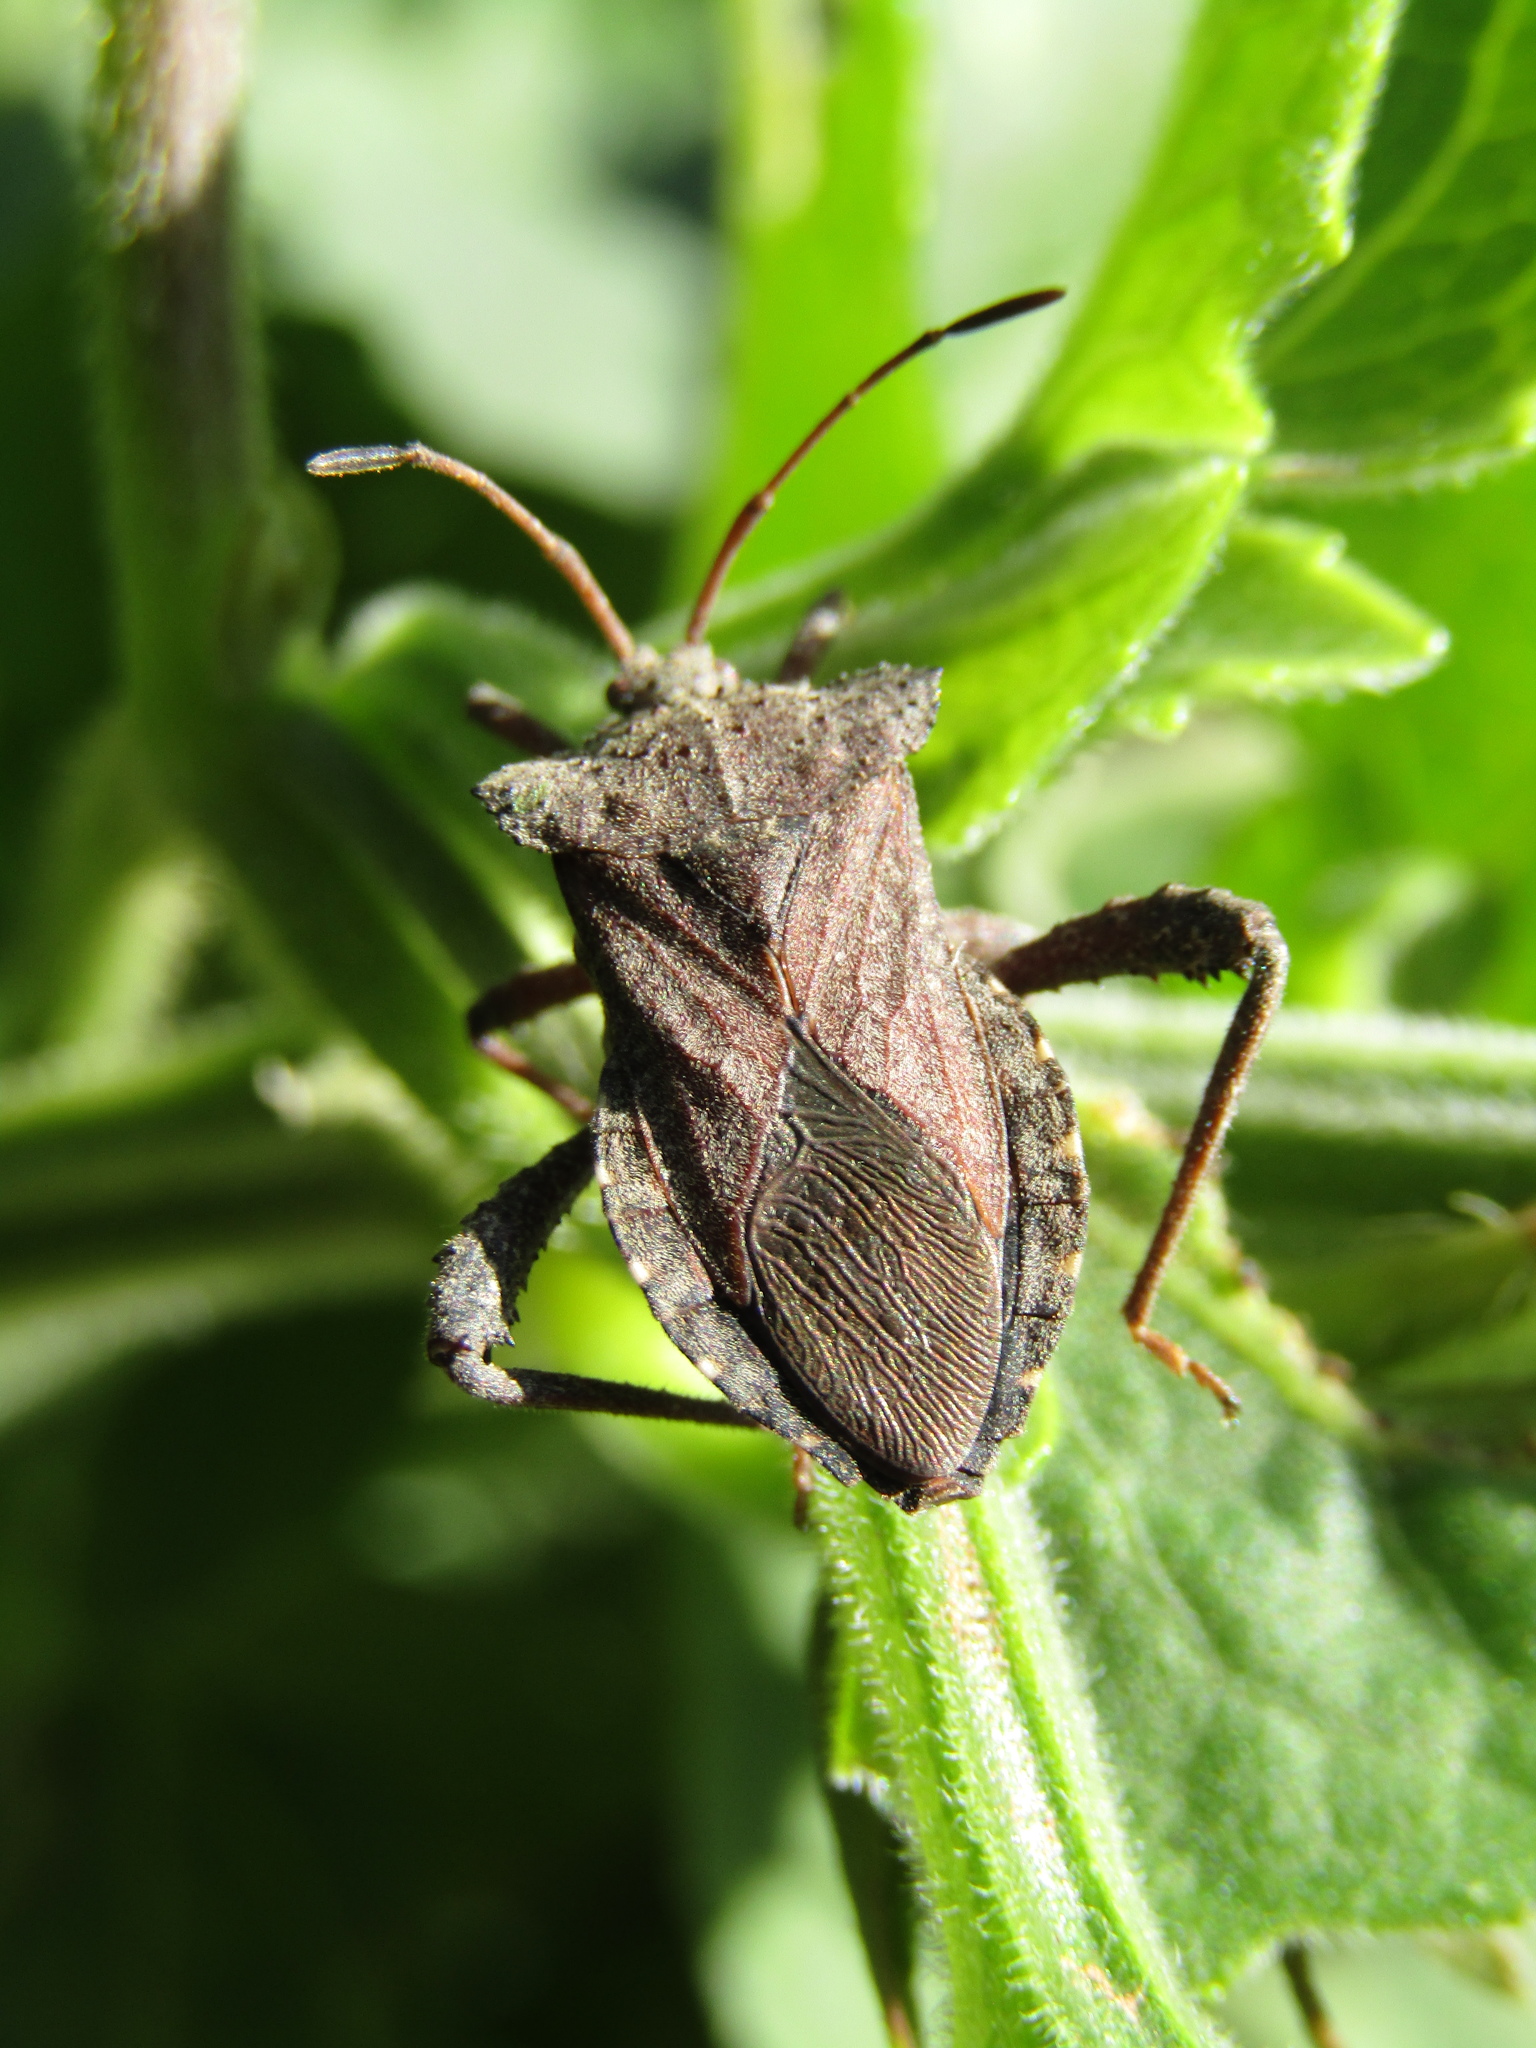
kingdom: Animalia
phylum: Arthropoda
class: Insecta
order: Hemiptera
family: Coreidae
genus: Camptischium
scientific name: Camptischium clavipes
